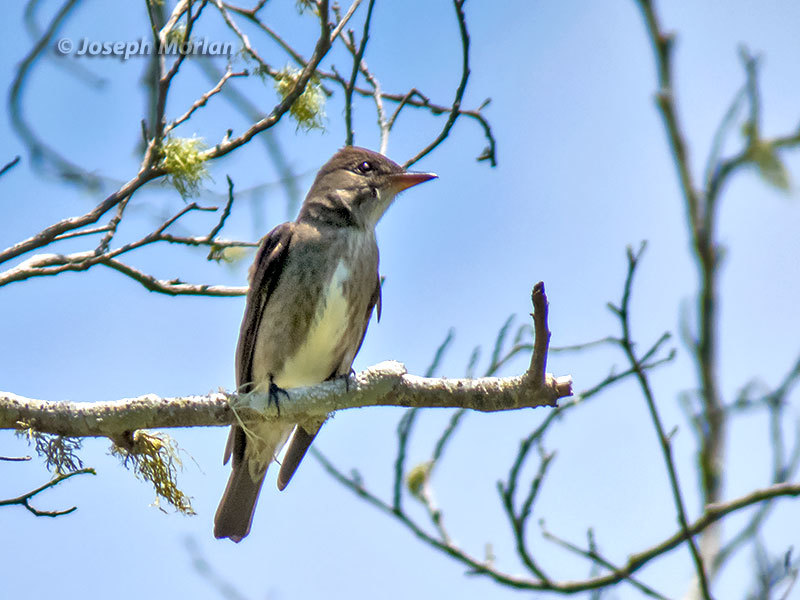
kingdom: Animalia
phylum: Chordata
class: Aves
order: Passeriformes
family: Tyrannidae
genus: Contopus
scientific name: Contopus cooperi
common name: Olive-sided flycatcher
